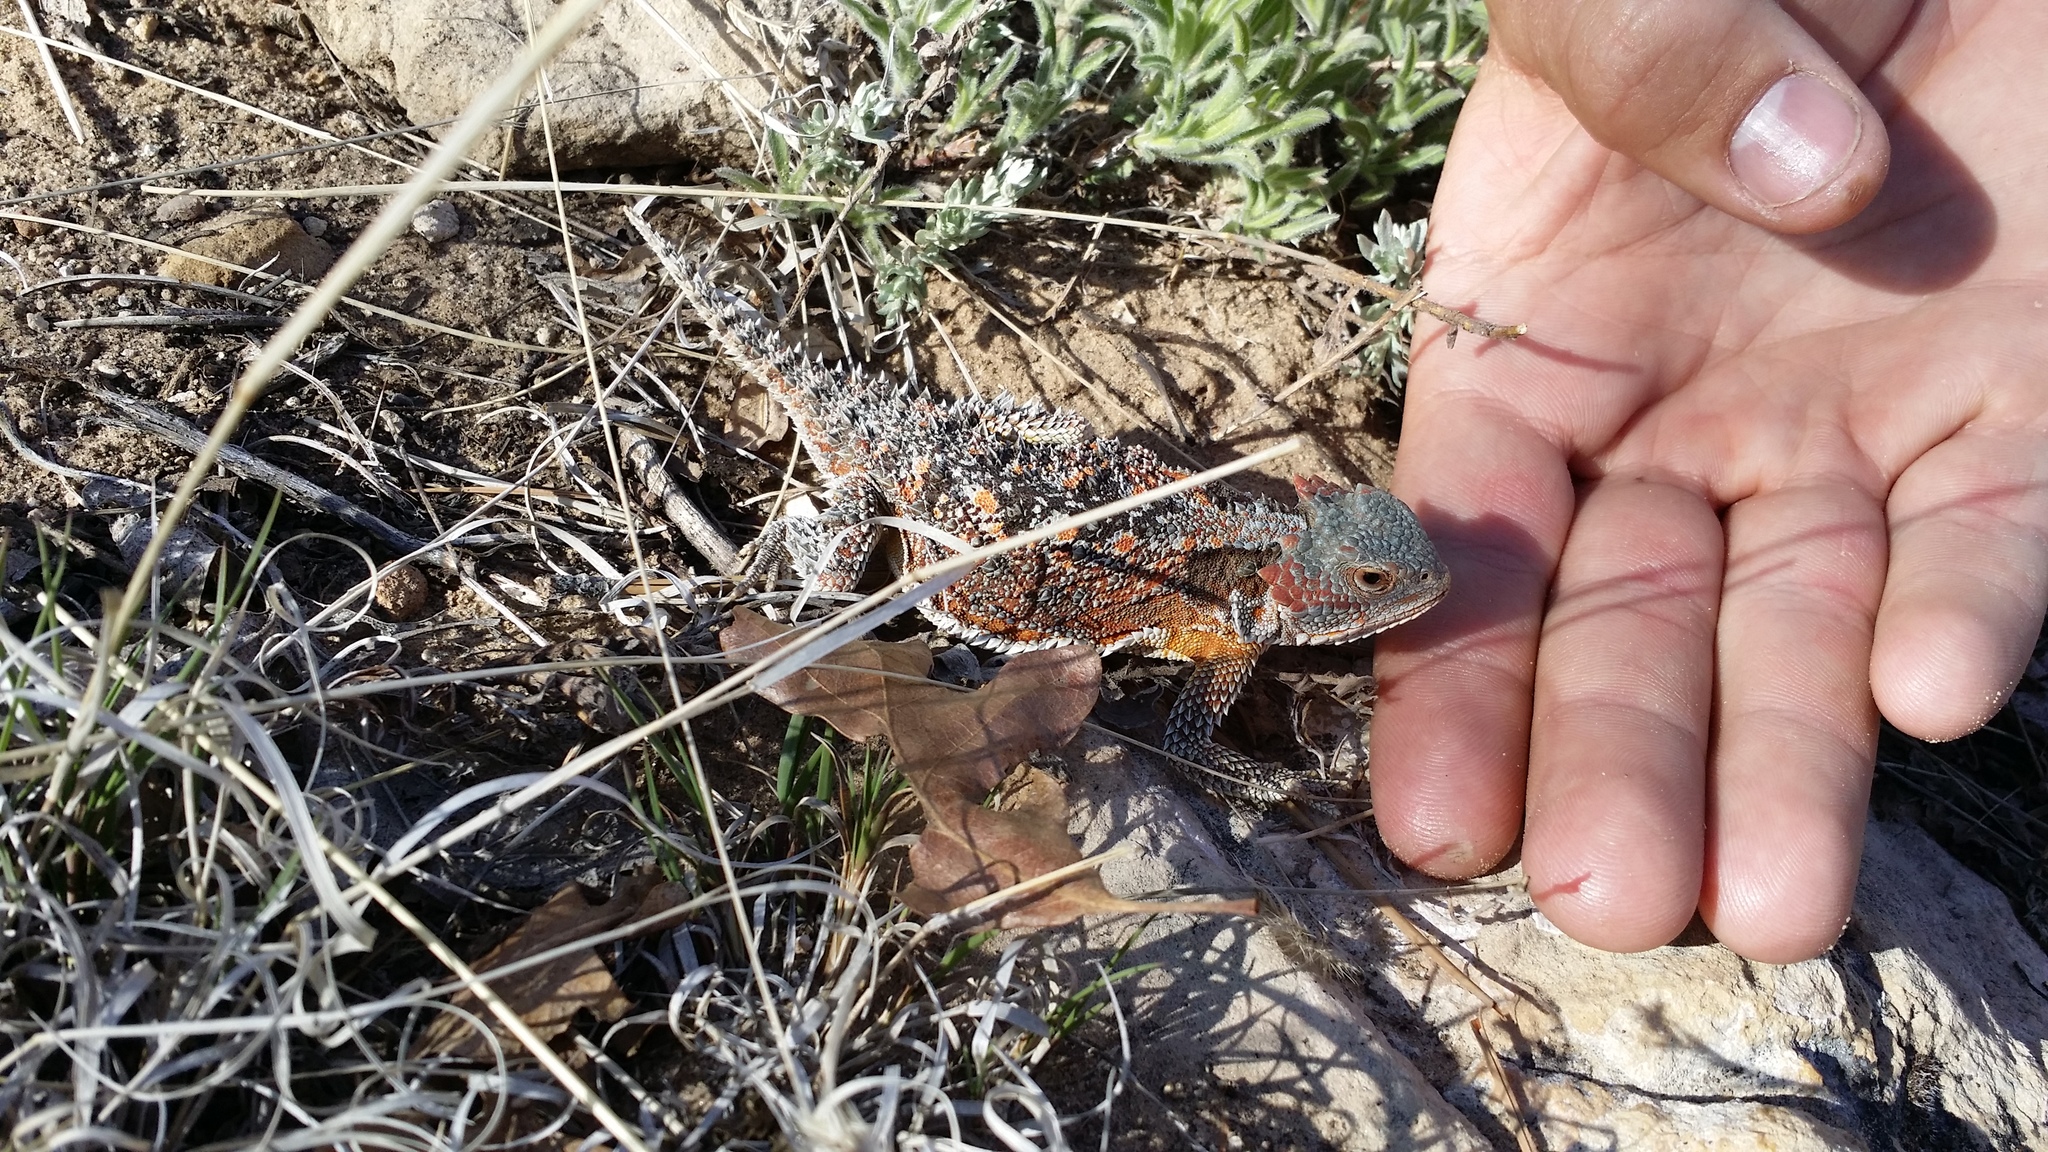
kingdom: Animalia
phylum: Chordata
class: Squamata
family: Phrynosomatidae
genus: Phrynosoma
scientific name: Phrynosoma hernandesi
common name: Greater short-horned lizard
